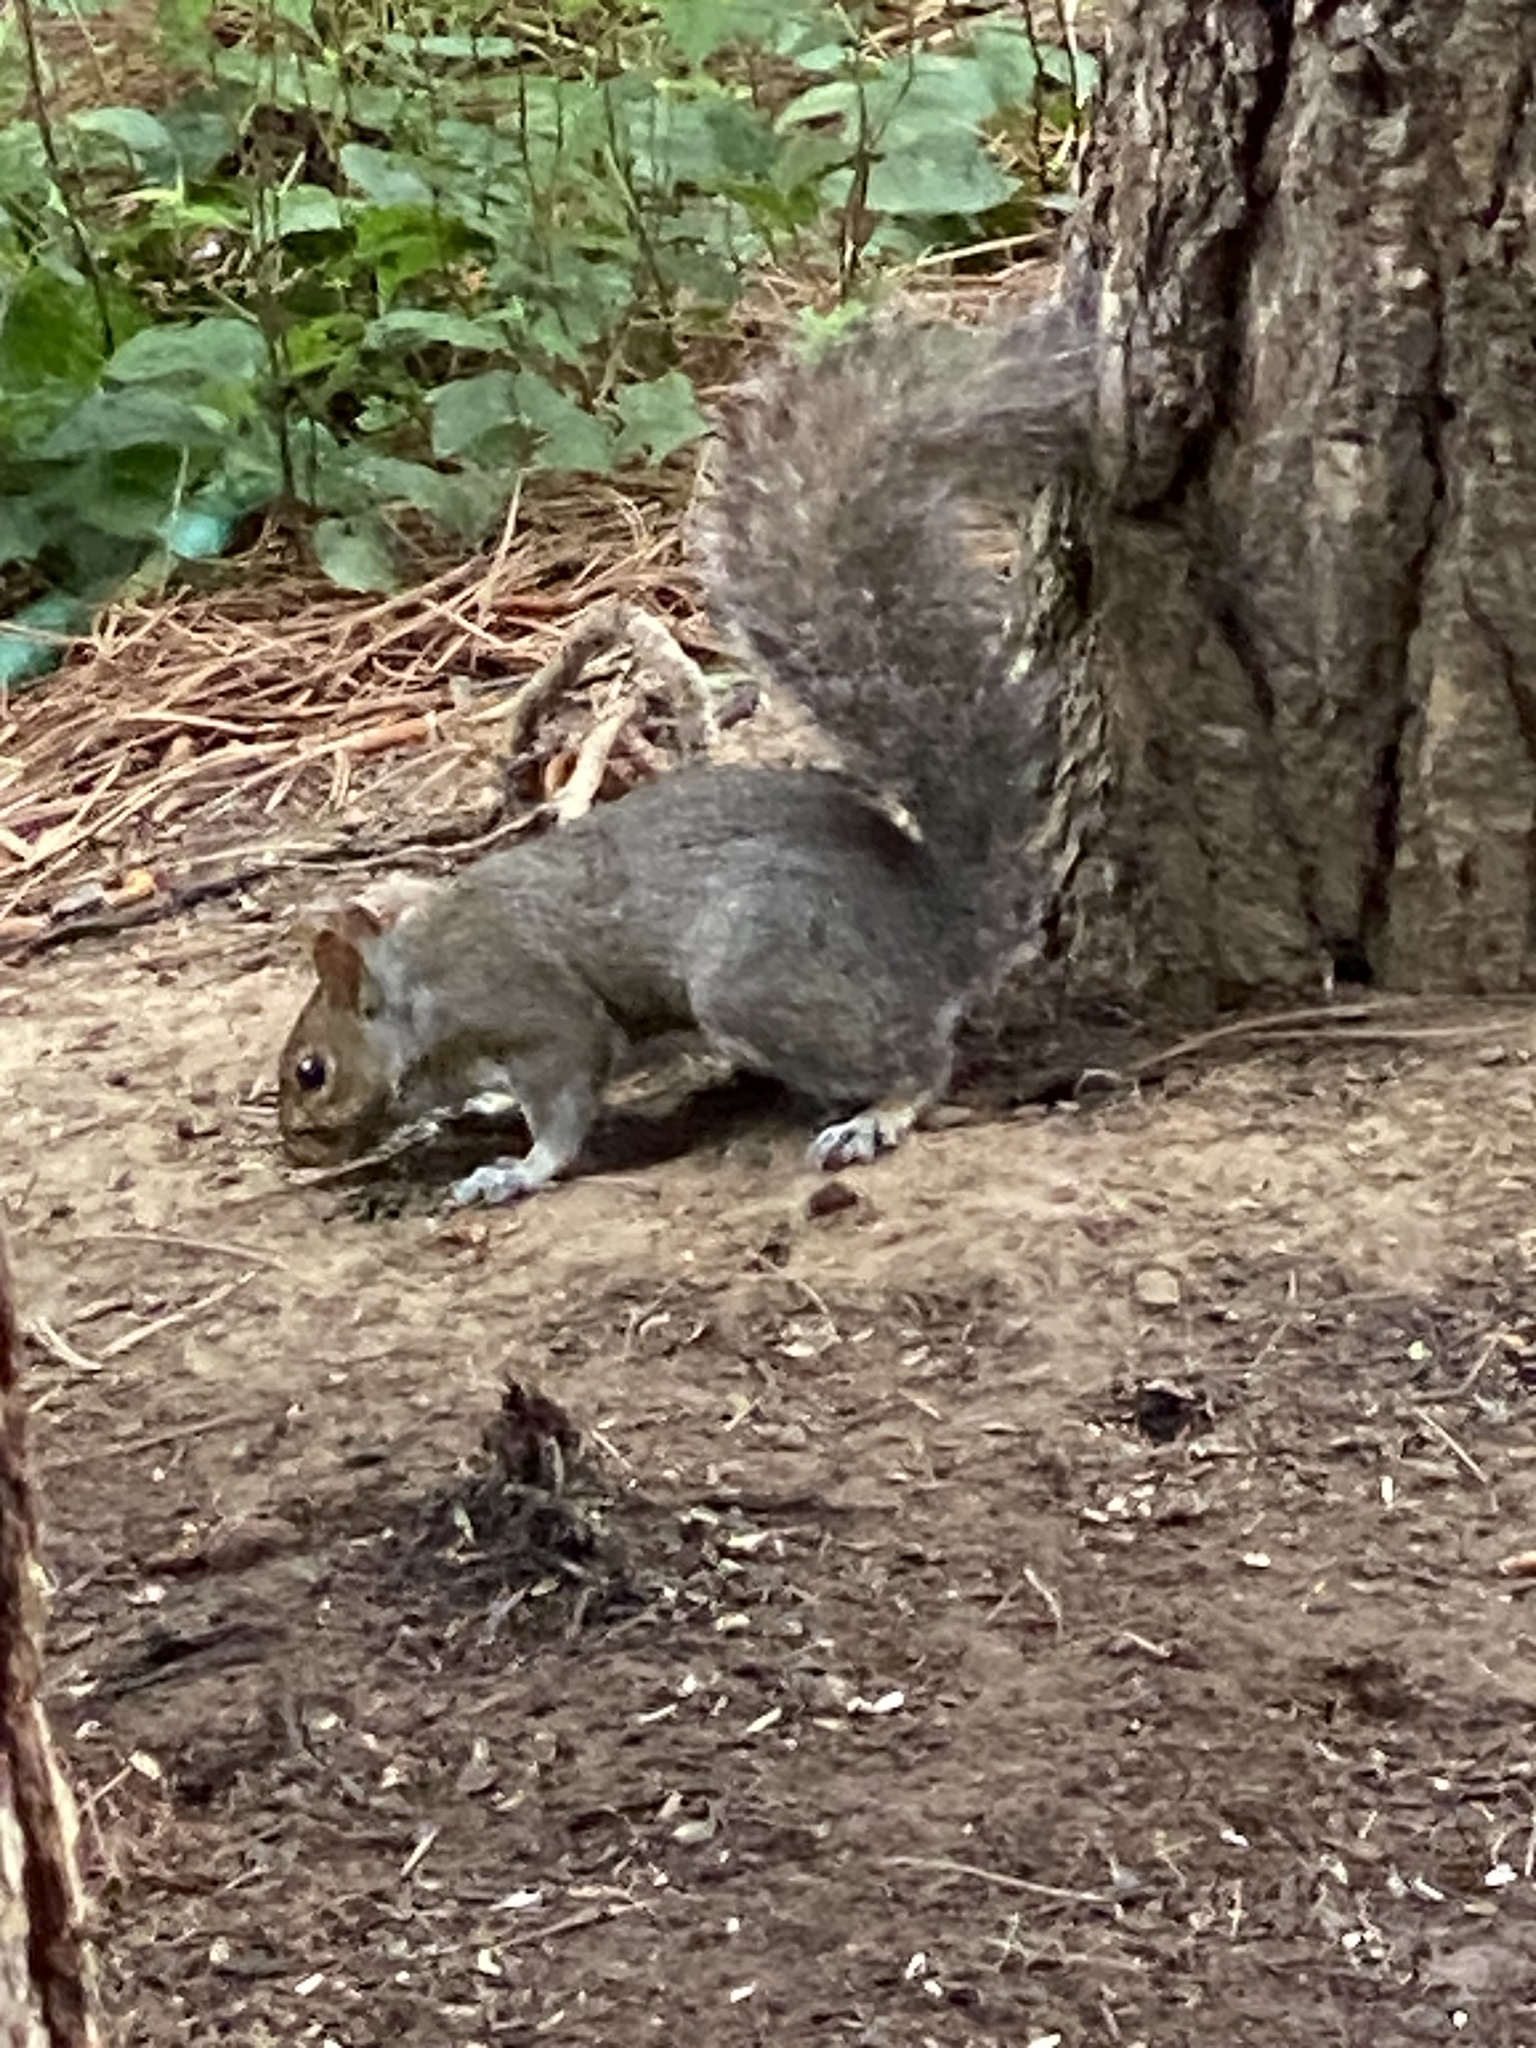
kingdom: Animalia
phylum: Chordata
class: Mammalia
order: Rodentia
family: Sciuridae
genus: Sciurus
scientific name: Sciurus carolinensis
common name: Eastern gray squirrel
